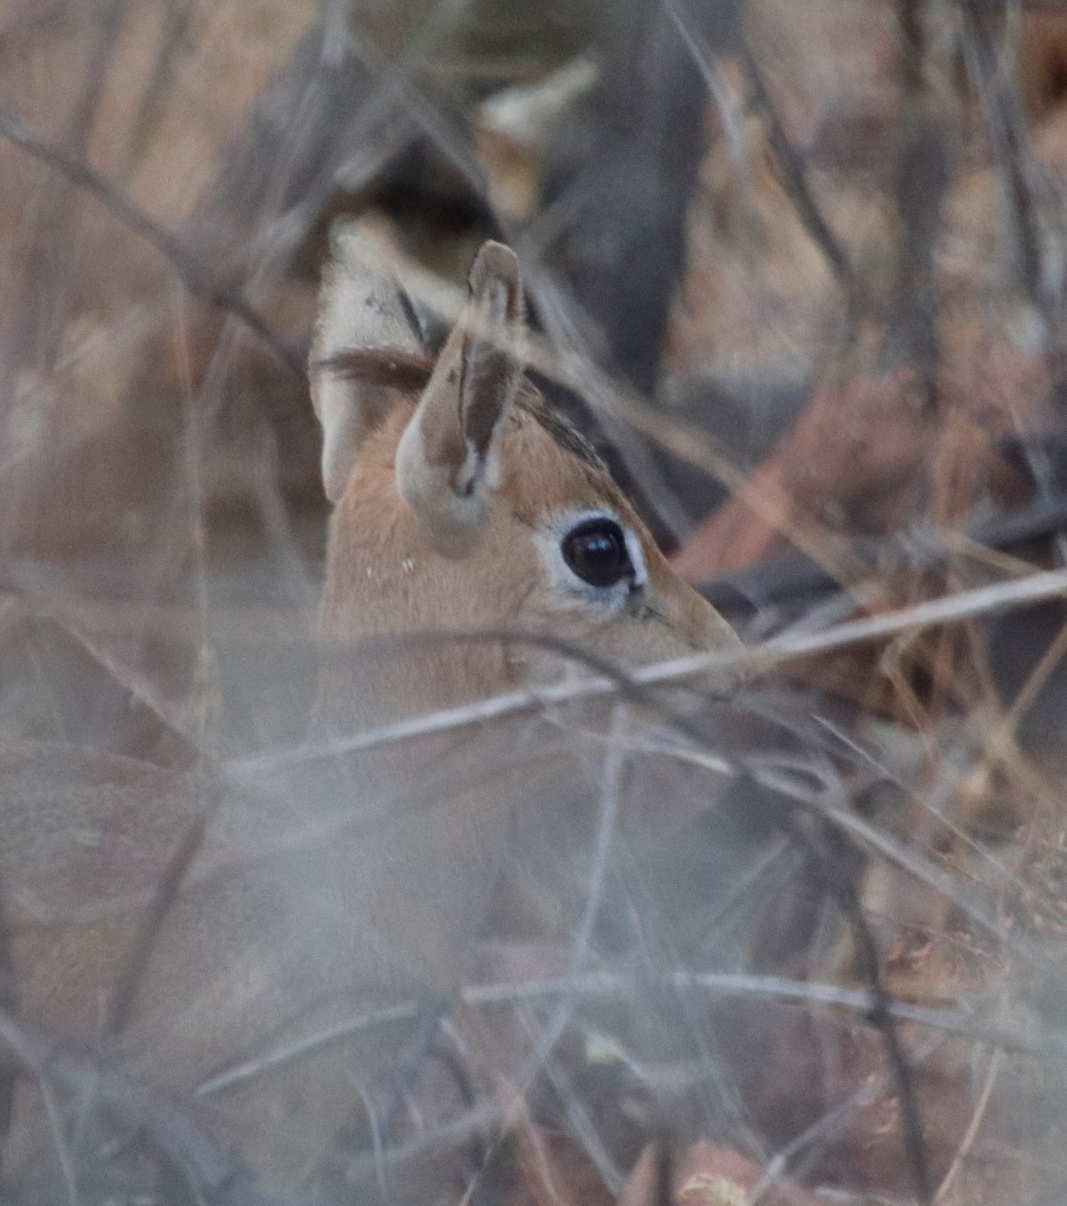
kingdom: Animalia
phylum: Chordata
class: Mammalia
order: Artiodactyla
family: Bovidae
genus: Madoqua
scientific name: Madoqua kirkii
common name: Kirk's dik-dik
